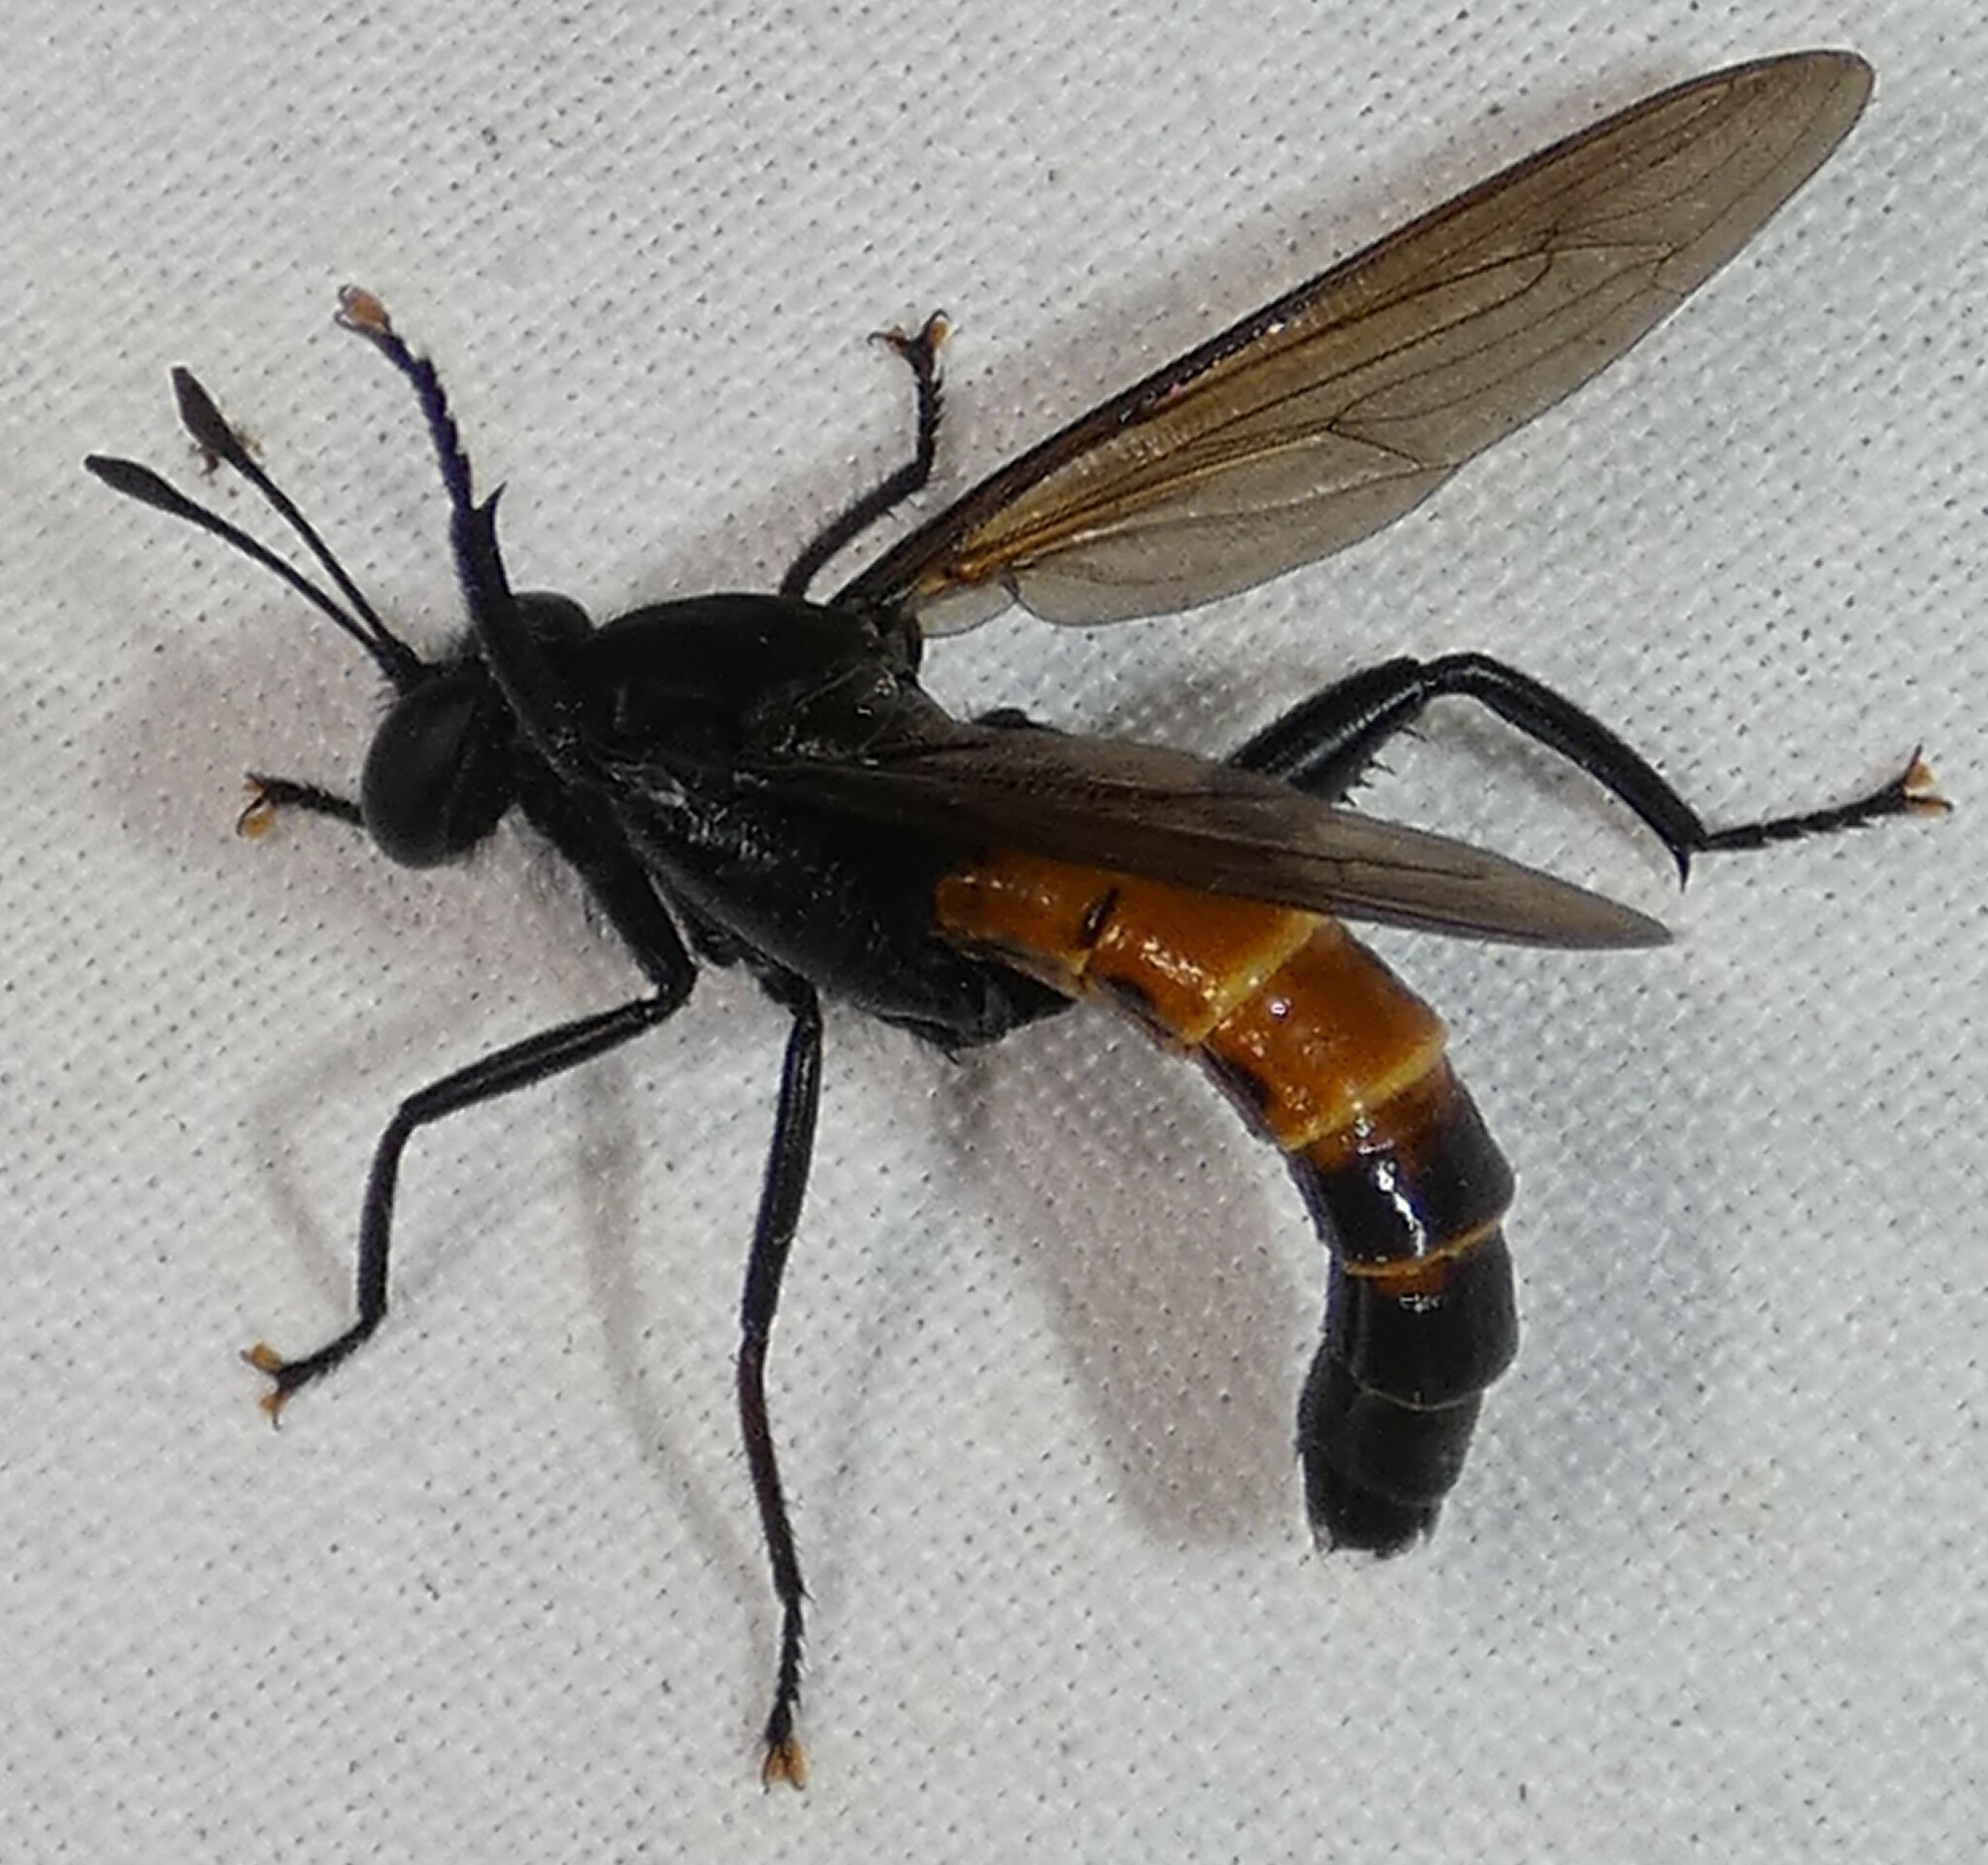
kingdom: Animalia
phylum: Arthropoda
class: Insecta
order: Diptera
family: Mydidae
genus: Mydas
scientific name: Mydas fulvifrons
